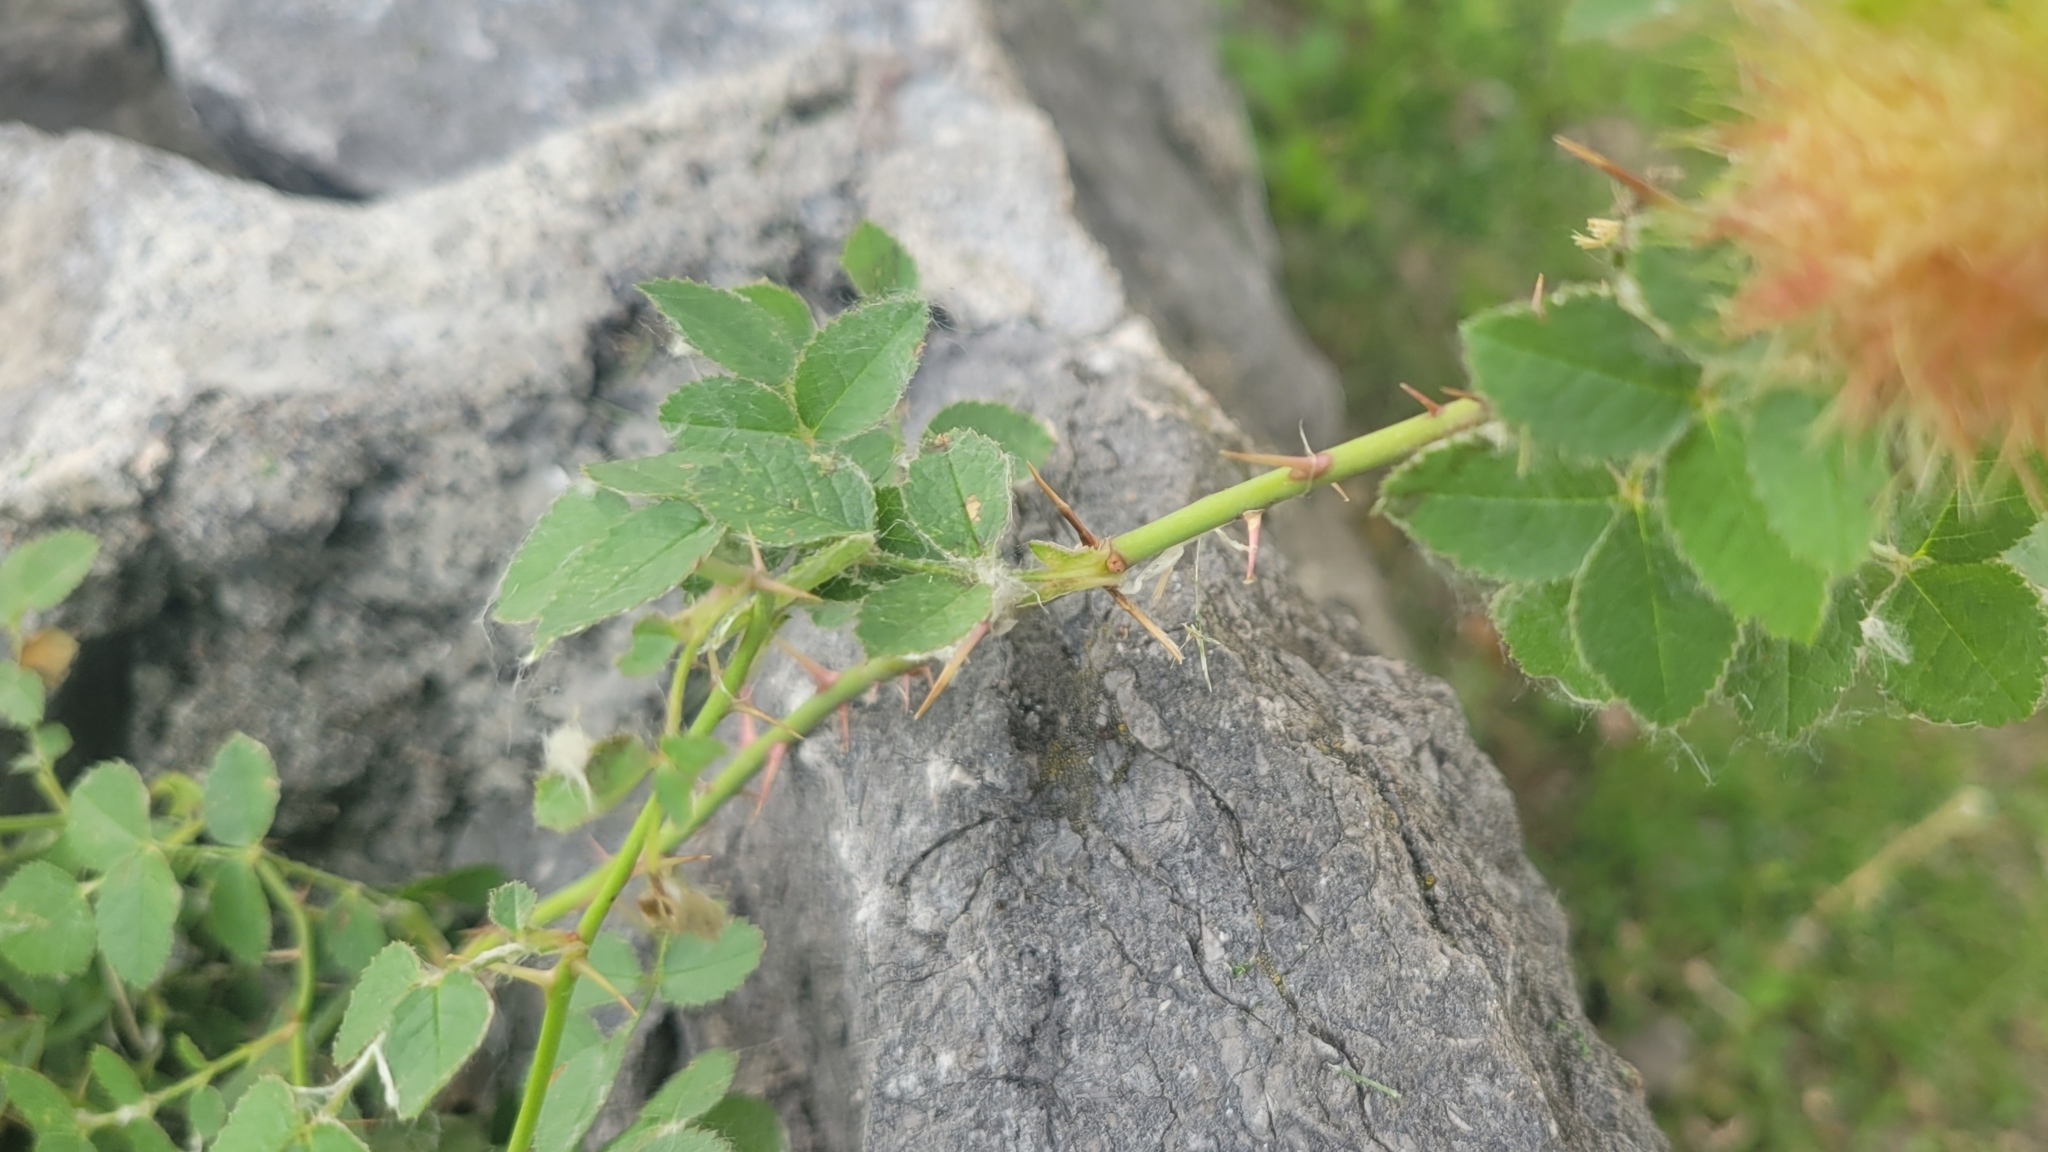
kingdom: Animalia
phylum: Arthropoda
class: Insecta
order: Hymenoptera
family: Cynipidae
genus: Diplolepis
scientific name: Diplolepis rosae
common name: Bedeguar gall
